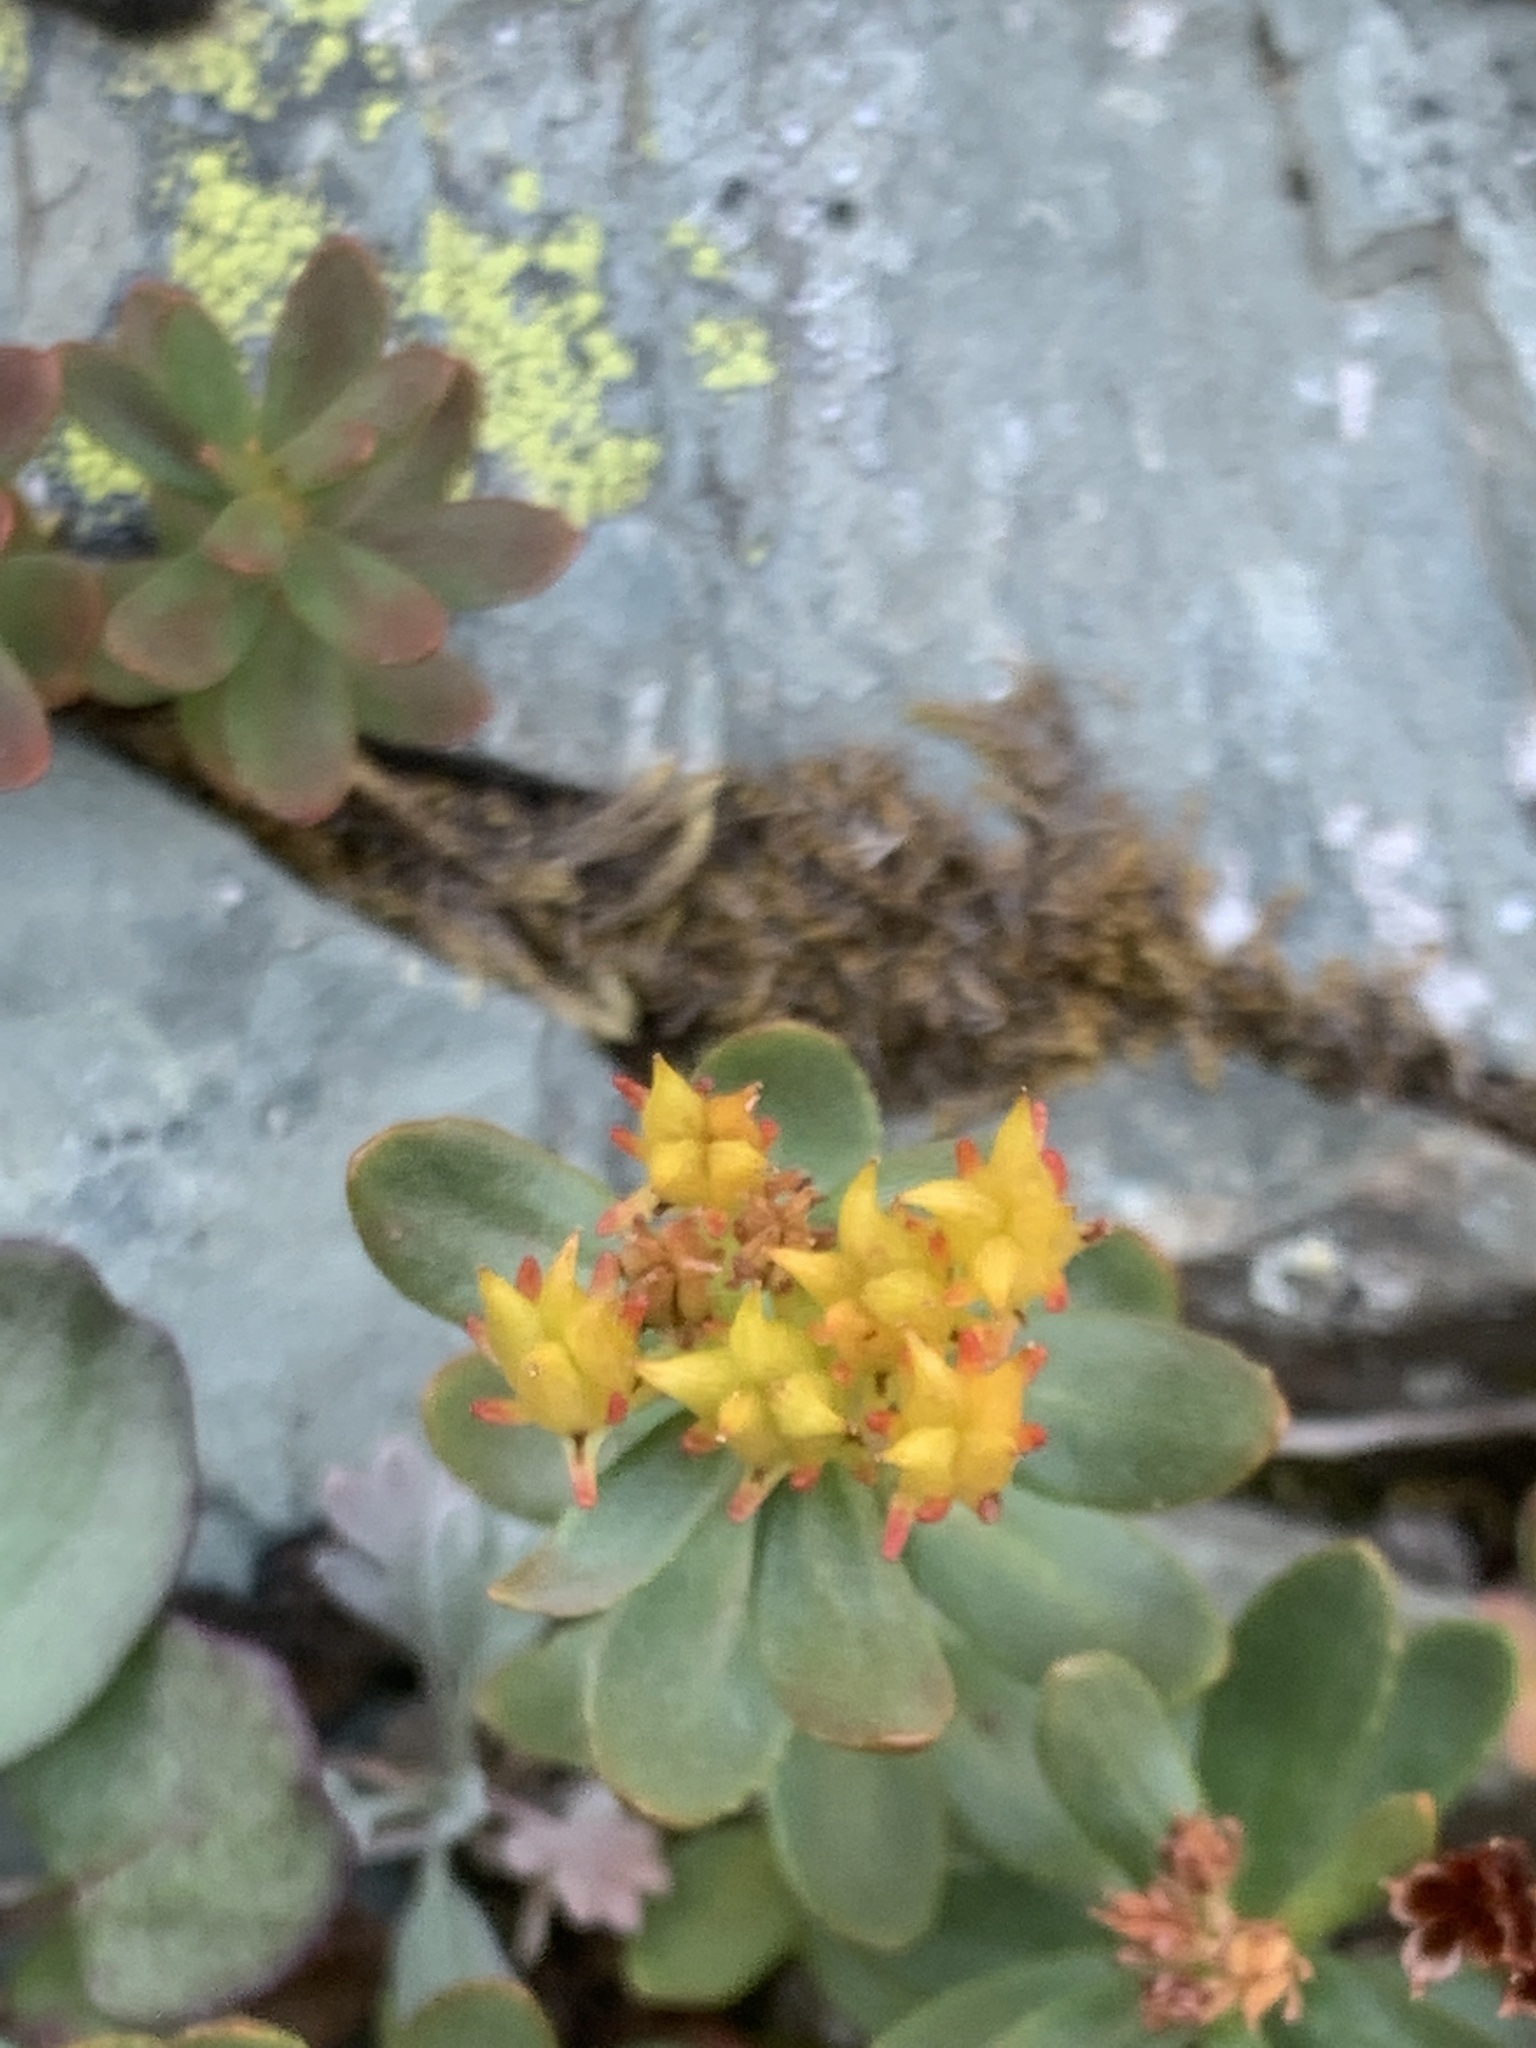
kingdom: Plantae
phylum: Tracheophyta
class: Magnoliopsida
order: Saxifragales
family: Crassulaceae
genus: Rhodiola
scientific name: Rhodiola integrifolia
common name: Western roseroot
